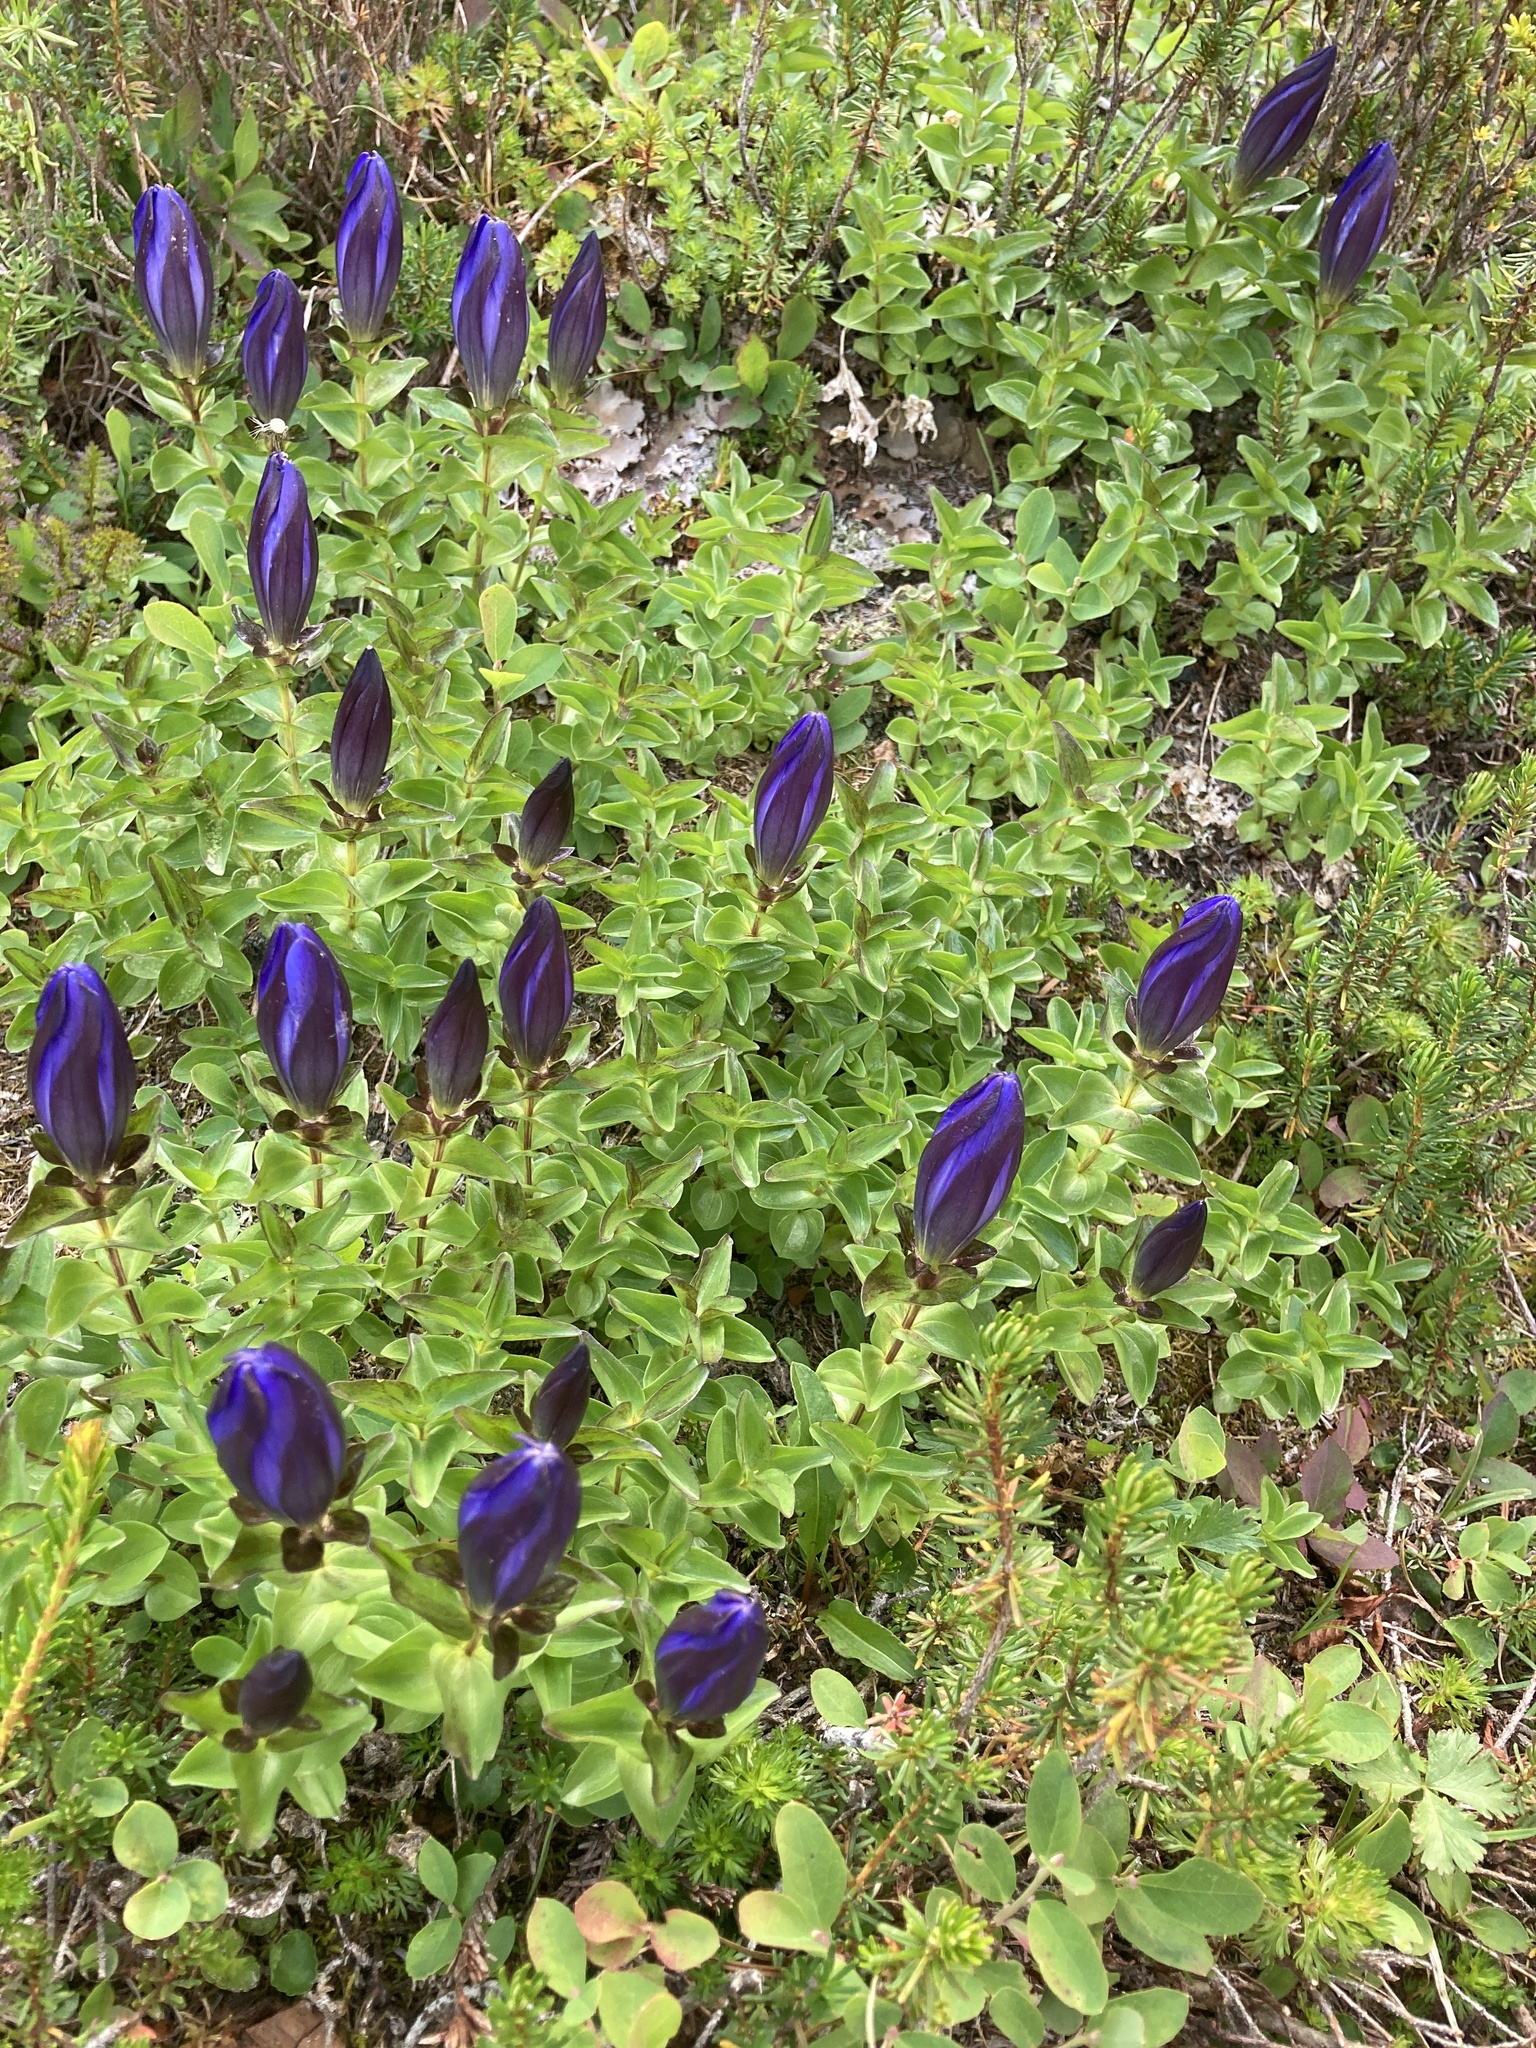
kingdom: Plantae
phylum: Tracheophyta
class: Magnoliopsida
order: Gentianales
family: Gentianaceae
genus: Gentiana
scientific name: Gentiana calycosa
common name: Rainier pleated gentian
